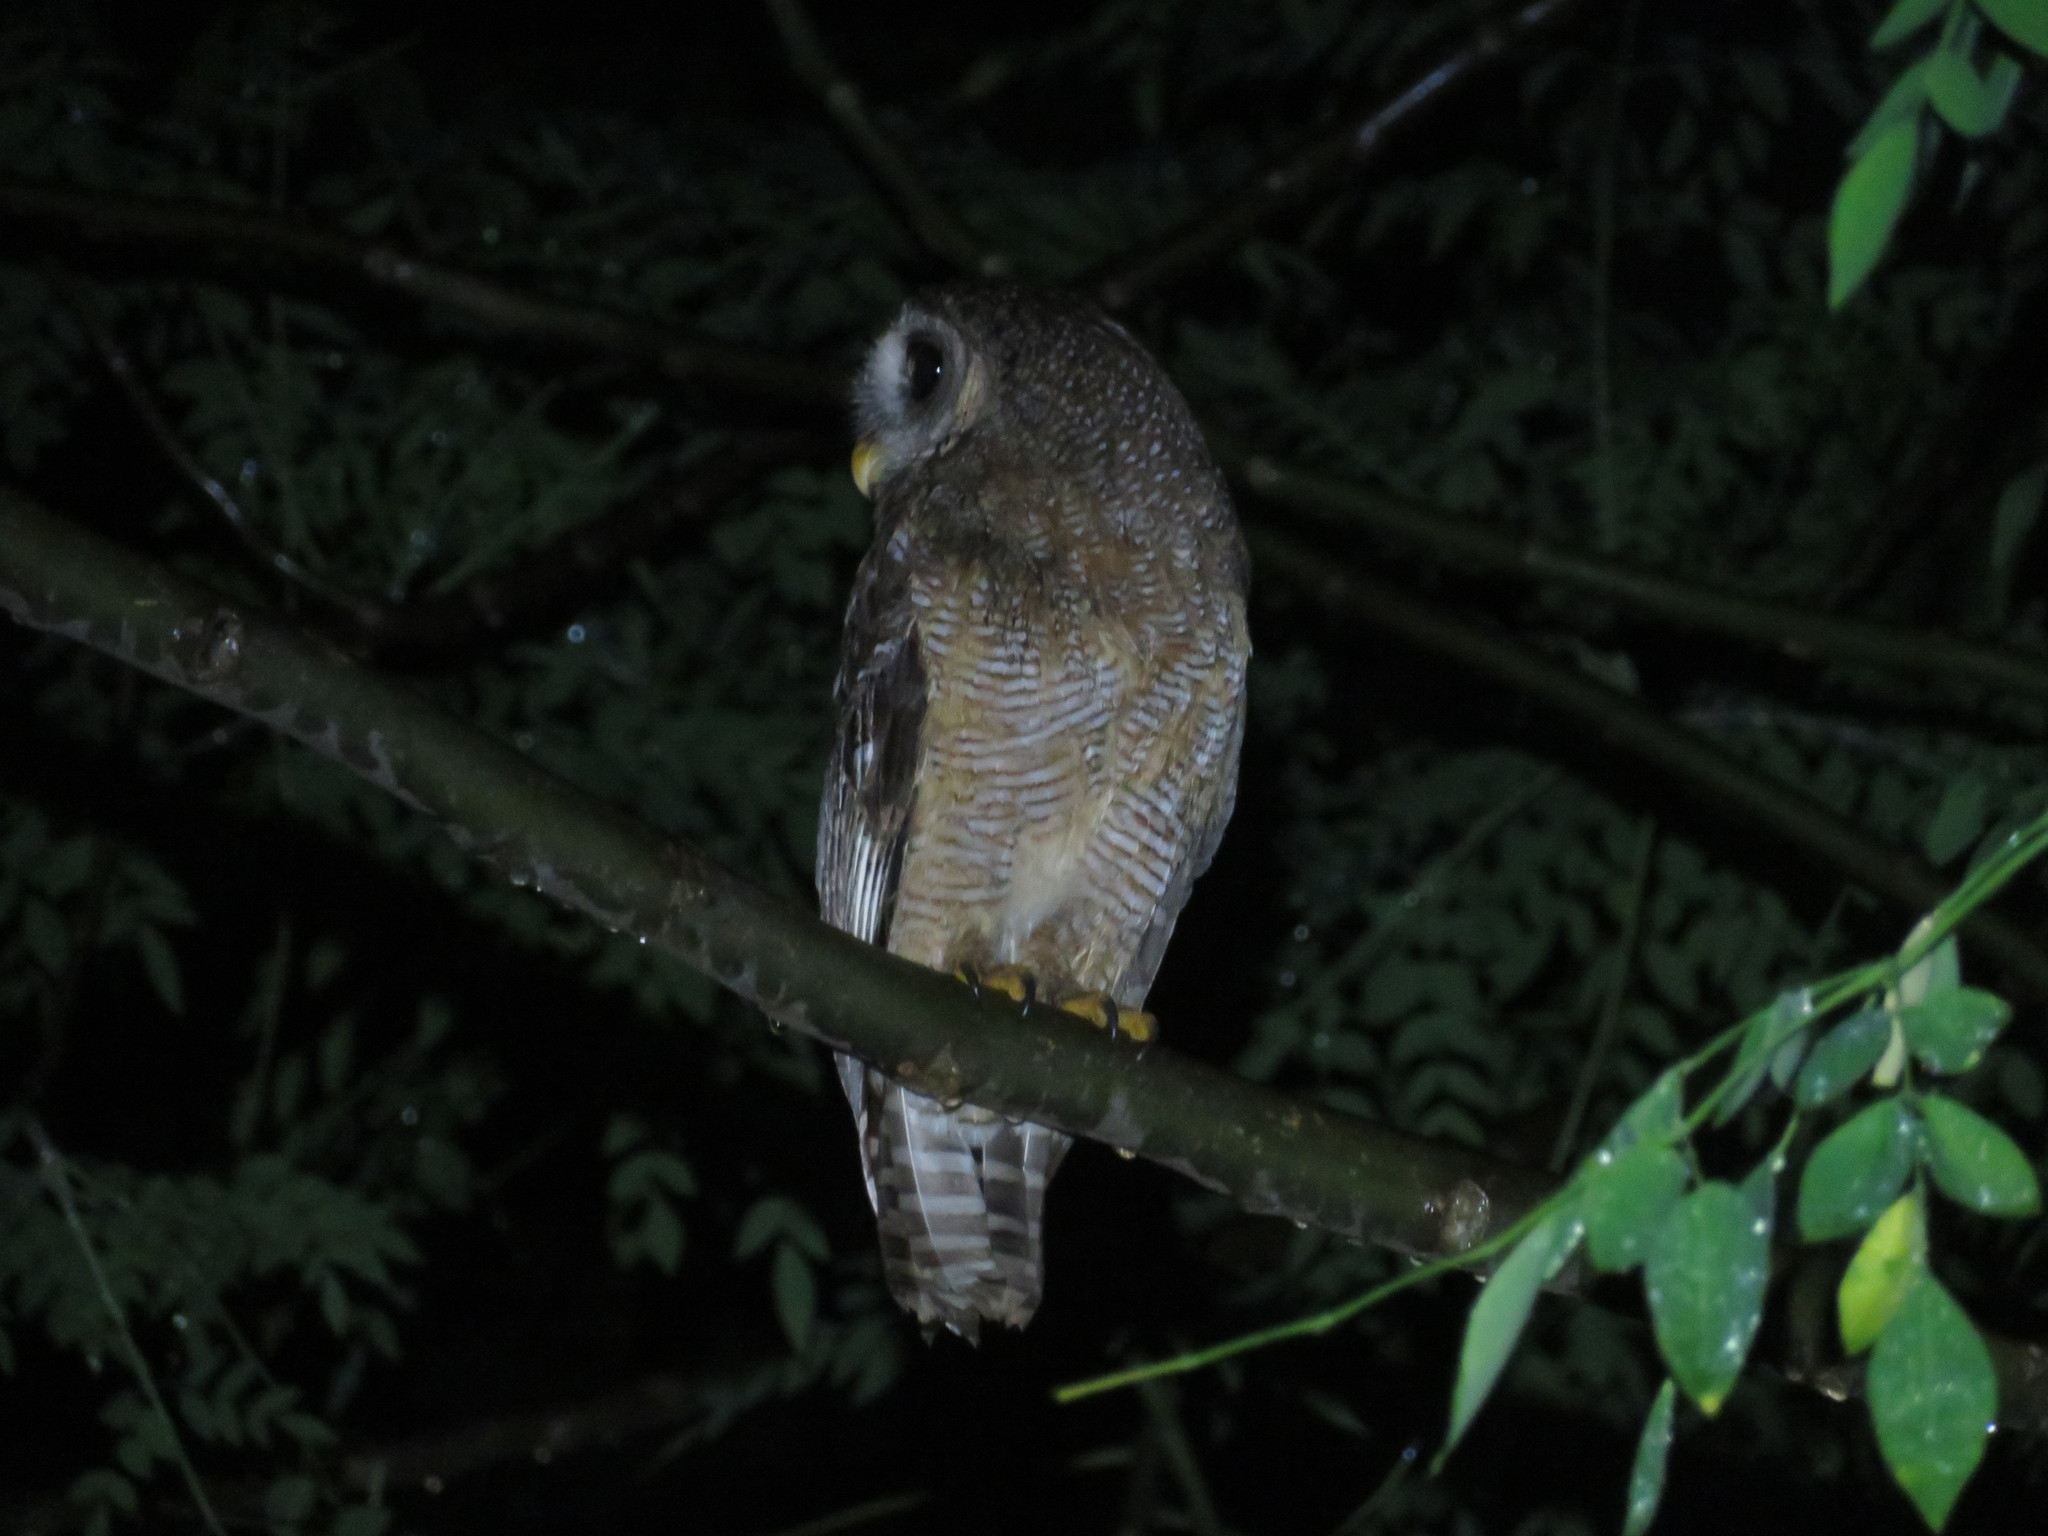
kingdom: Animalia
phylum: Chordata
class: Aves
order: Strigiformes
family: Strigidae
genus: Strix
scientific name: Strix woodfordii
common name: African wood owl
